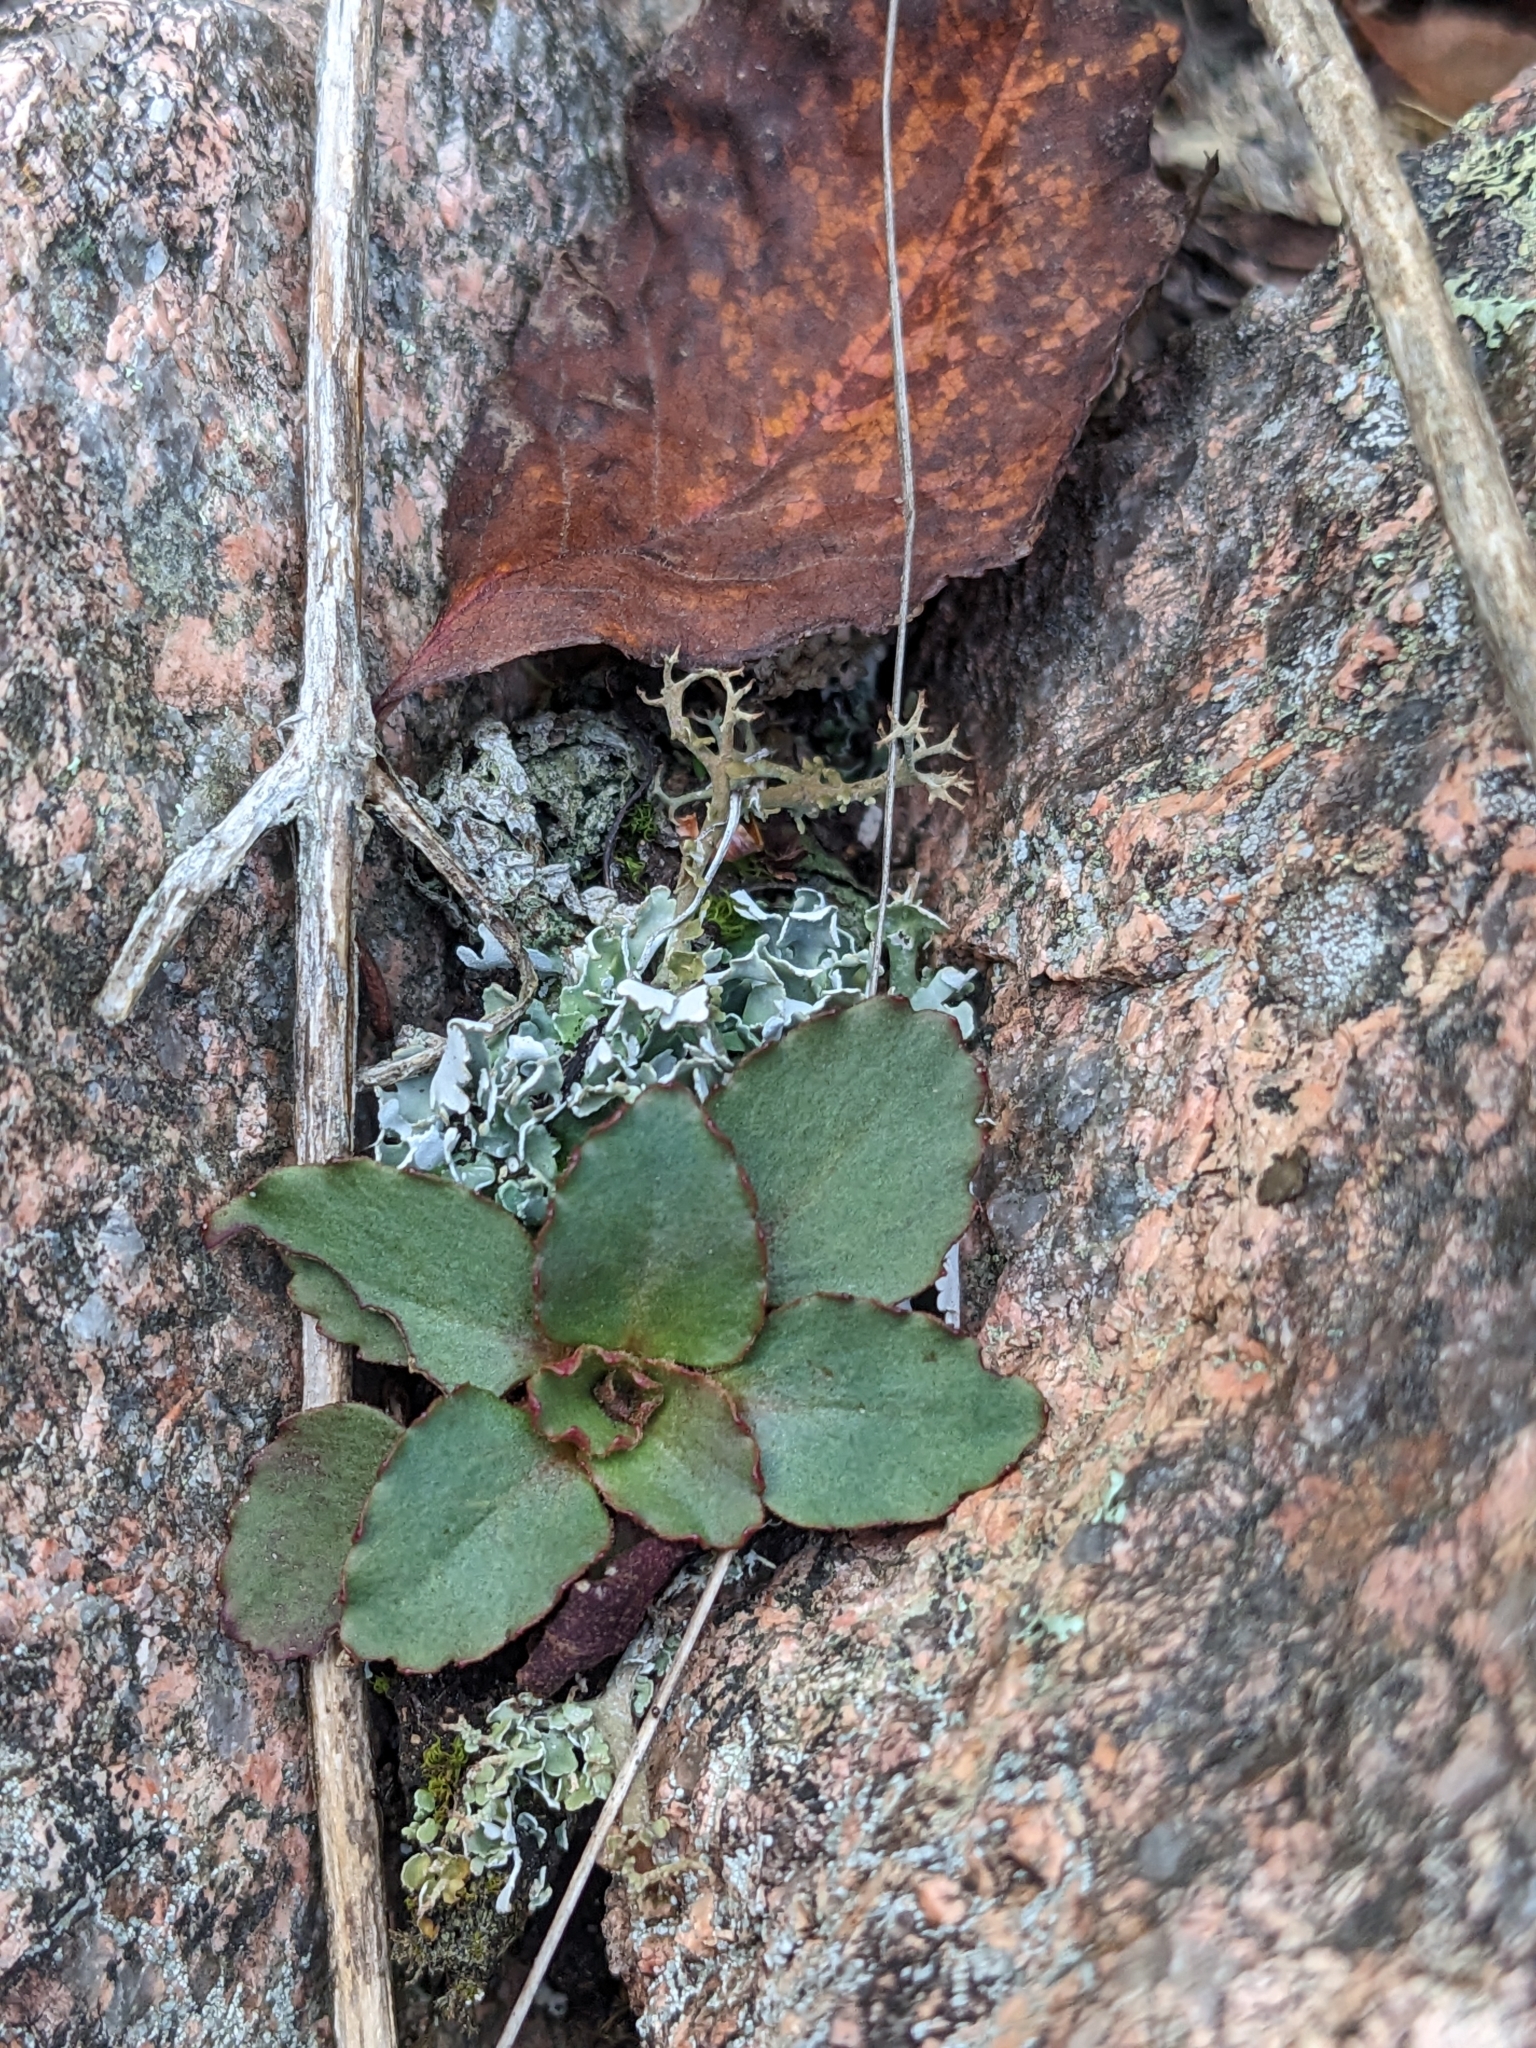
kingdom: Plantae
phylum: Tracheophyta
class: Magnoliopsida
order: Saxifragales
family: Saxifragaceae
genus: Micranthes
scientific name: Micranthes virginiensis
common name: Early saxifrage
